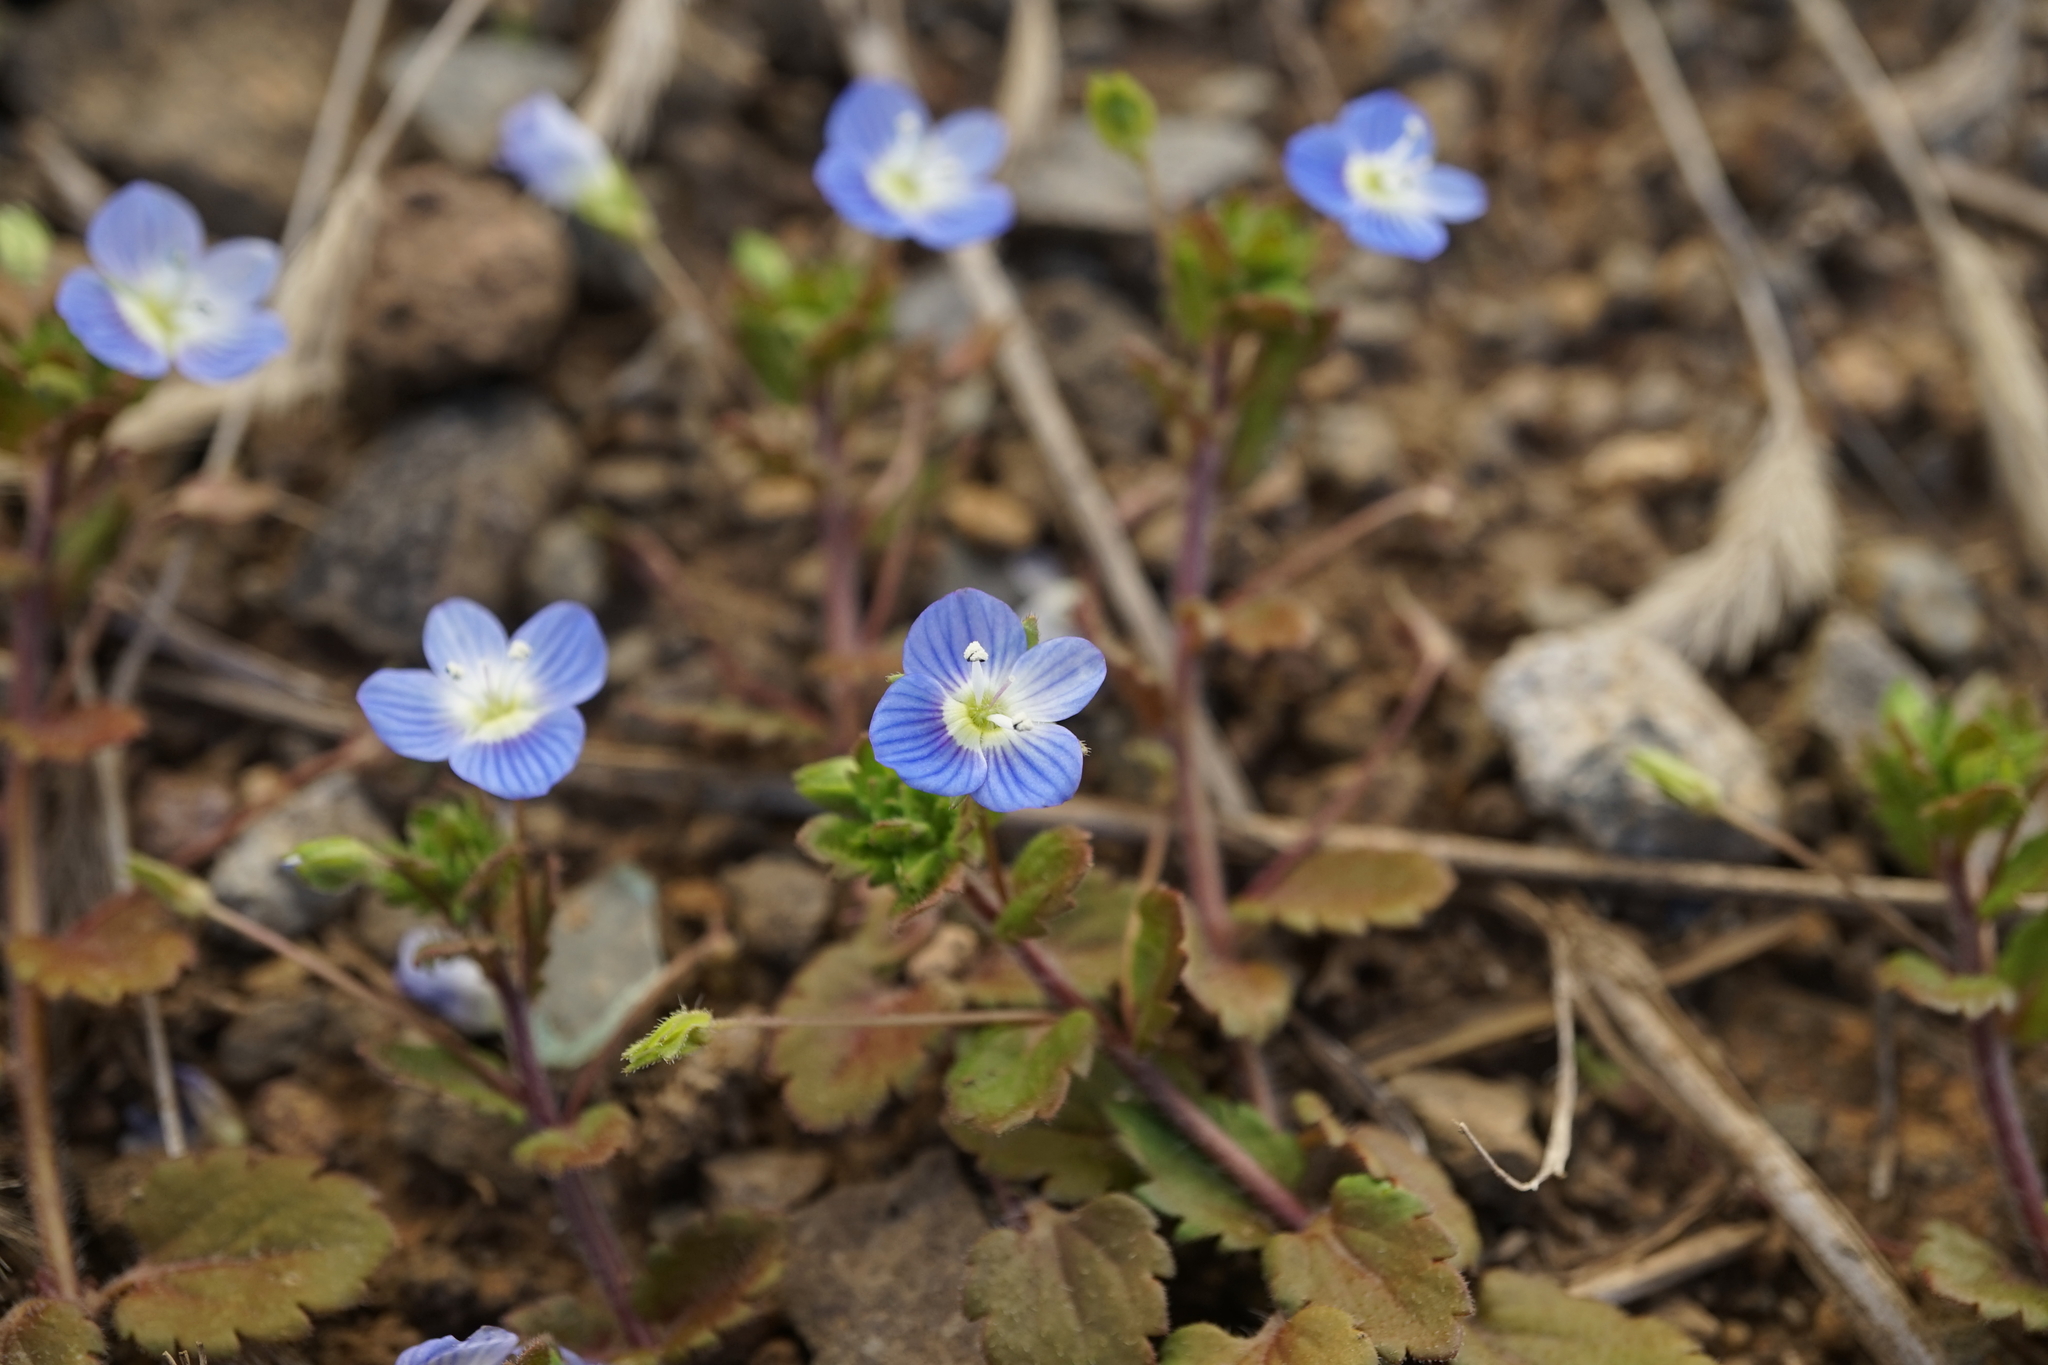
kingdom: Plantae
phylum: Tracheophyta
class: Magnoliopsida
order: Lamiales
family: Plantaginaceae
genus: Veronica
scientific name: Veronica persica
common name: Common field-speedwell
